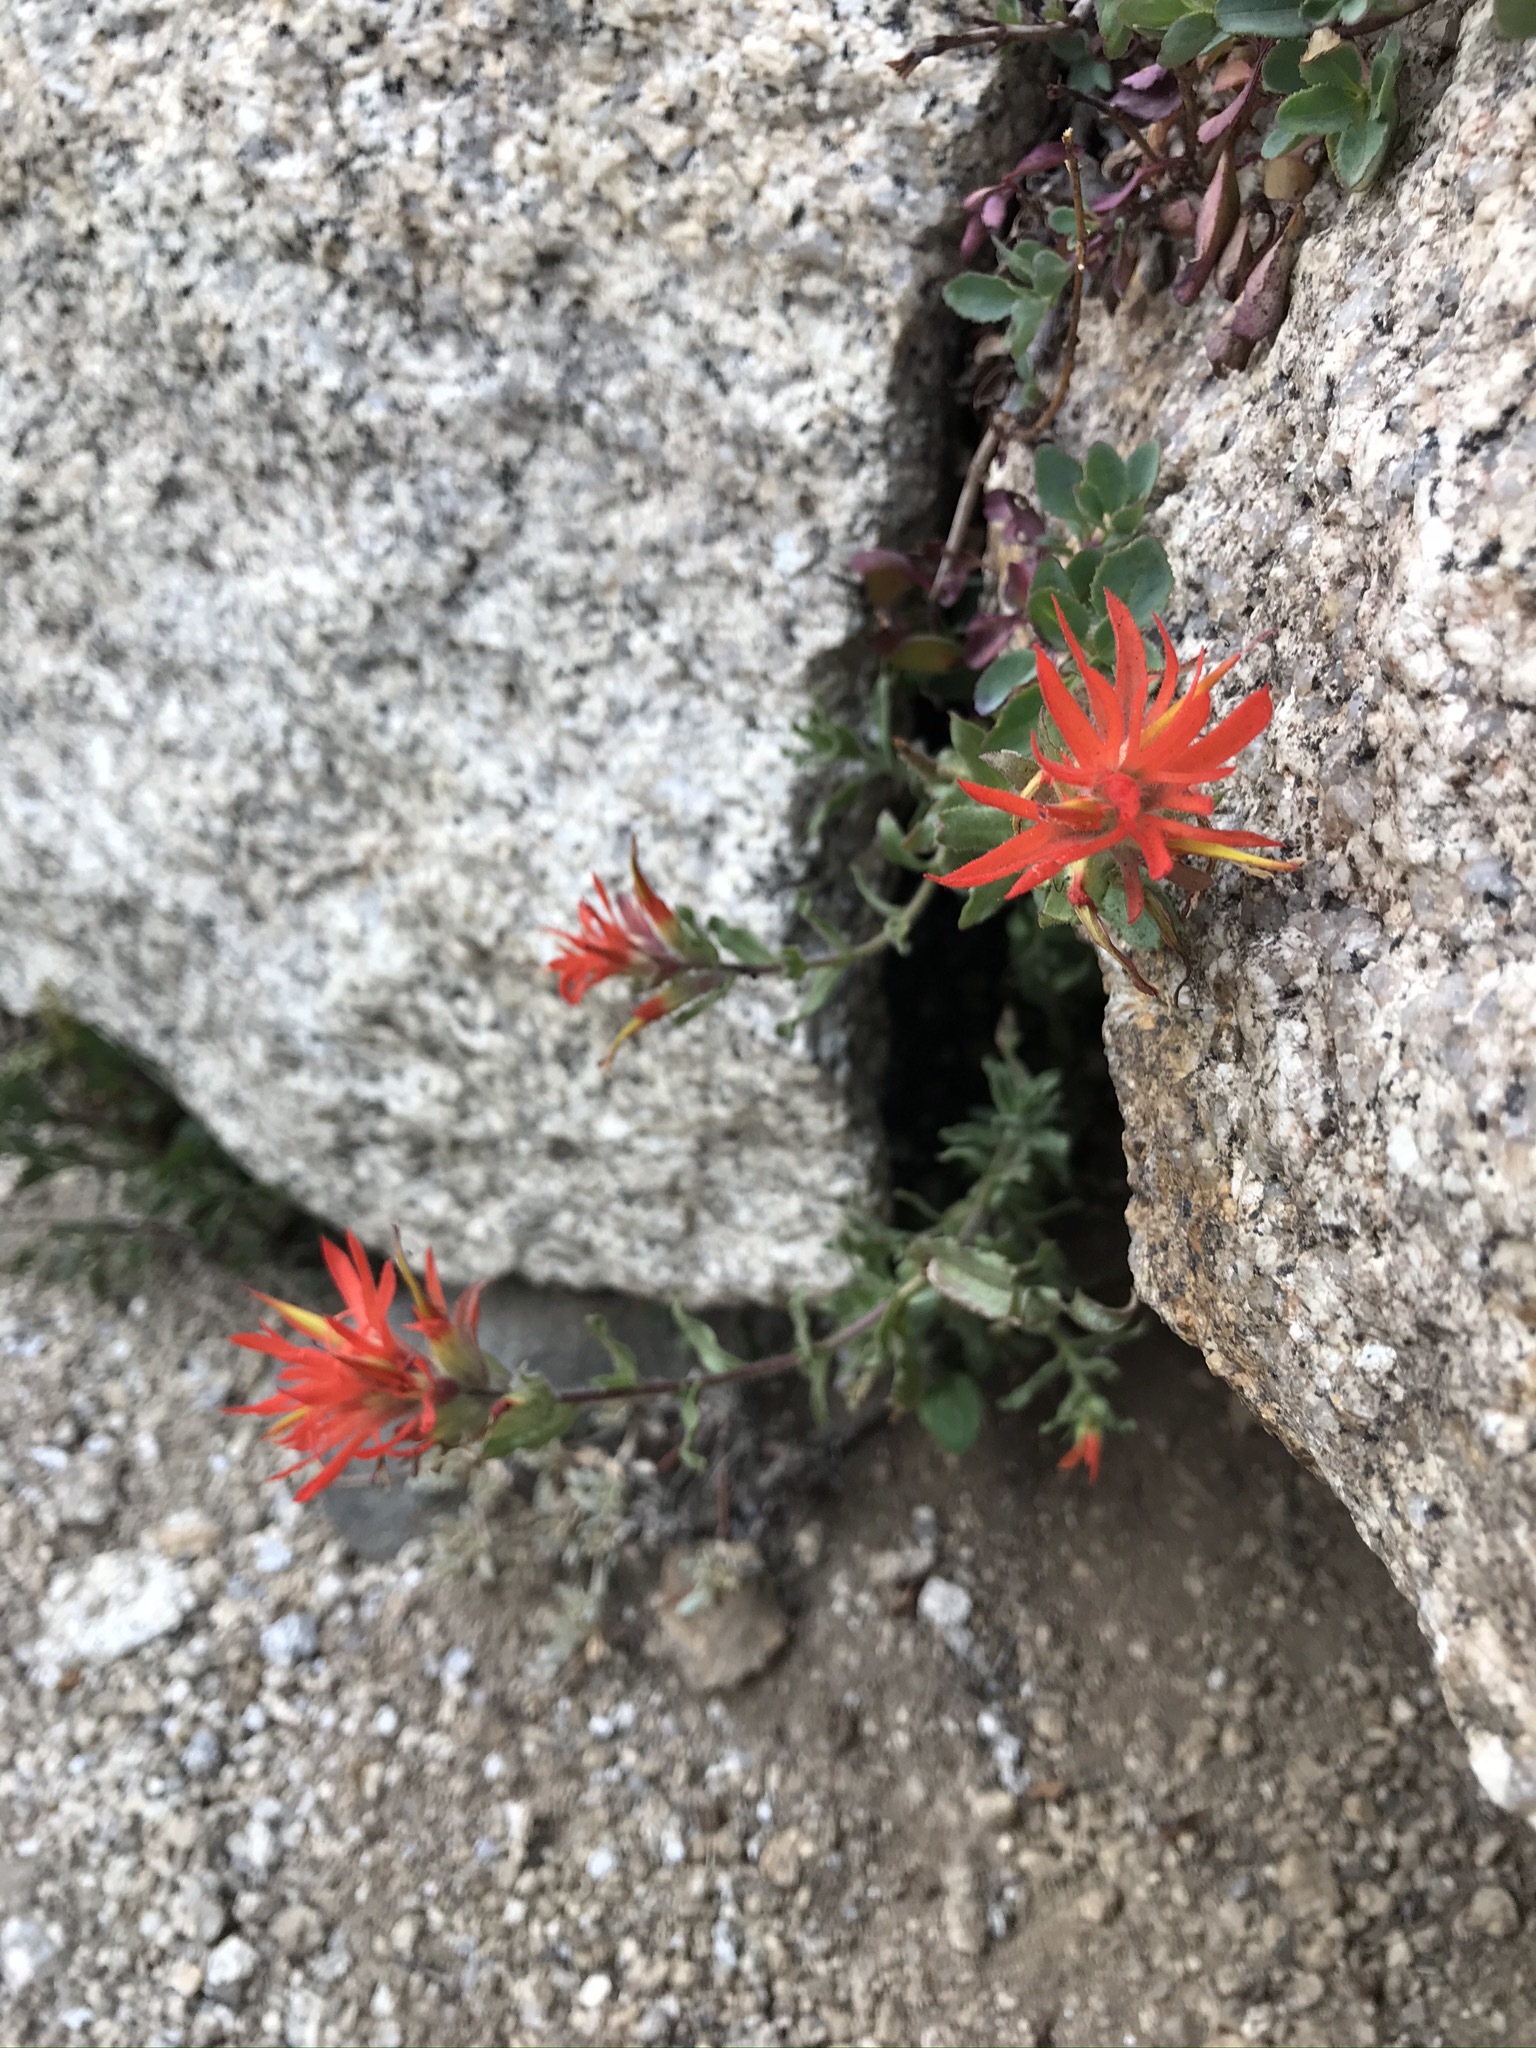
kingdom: Plantae
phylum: Tracheophyta
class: Magnoliopsida
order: Lamiales
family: Orobanchaceae
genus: Castilleja
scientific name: Castilleja applegatei
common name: Wavy-leaf paintbrush
